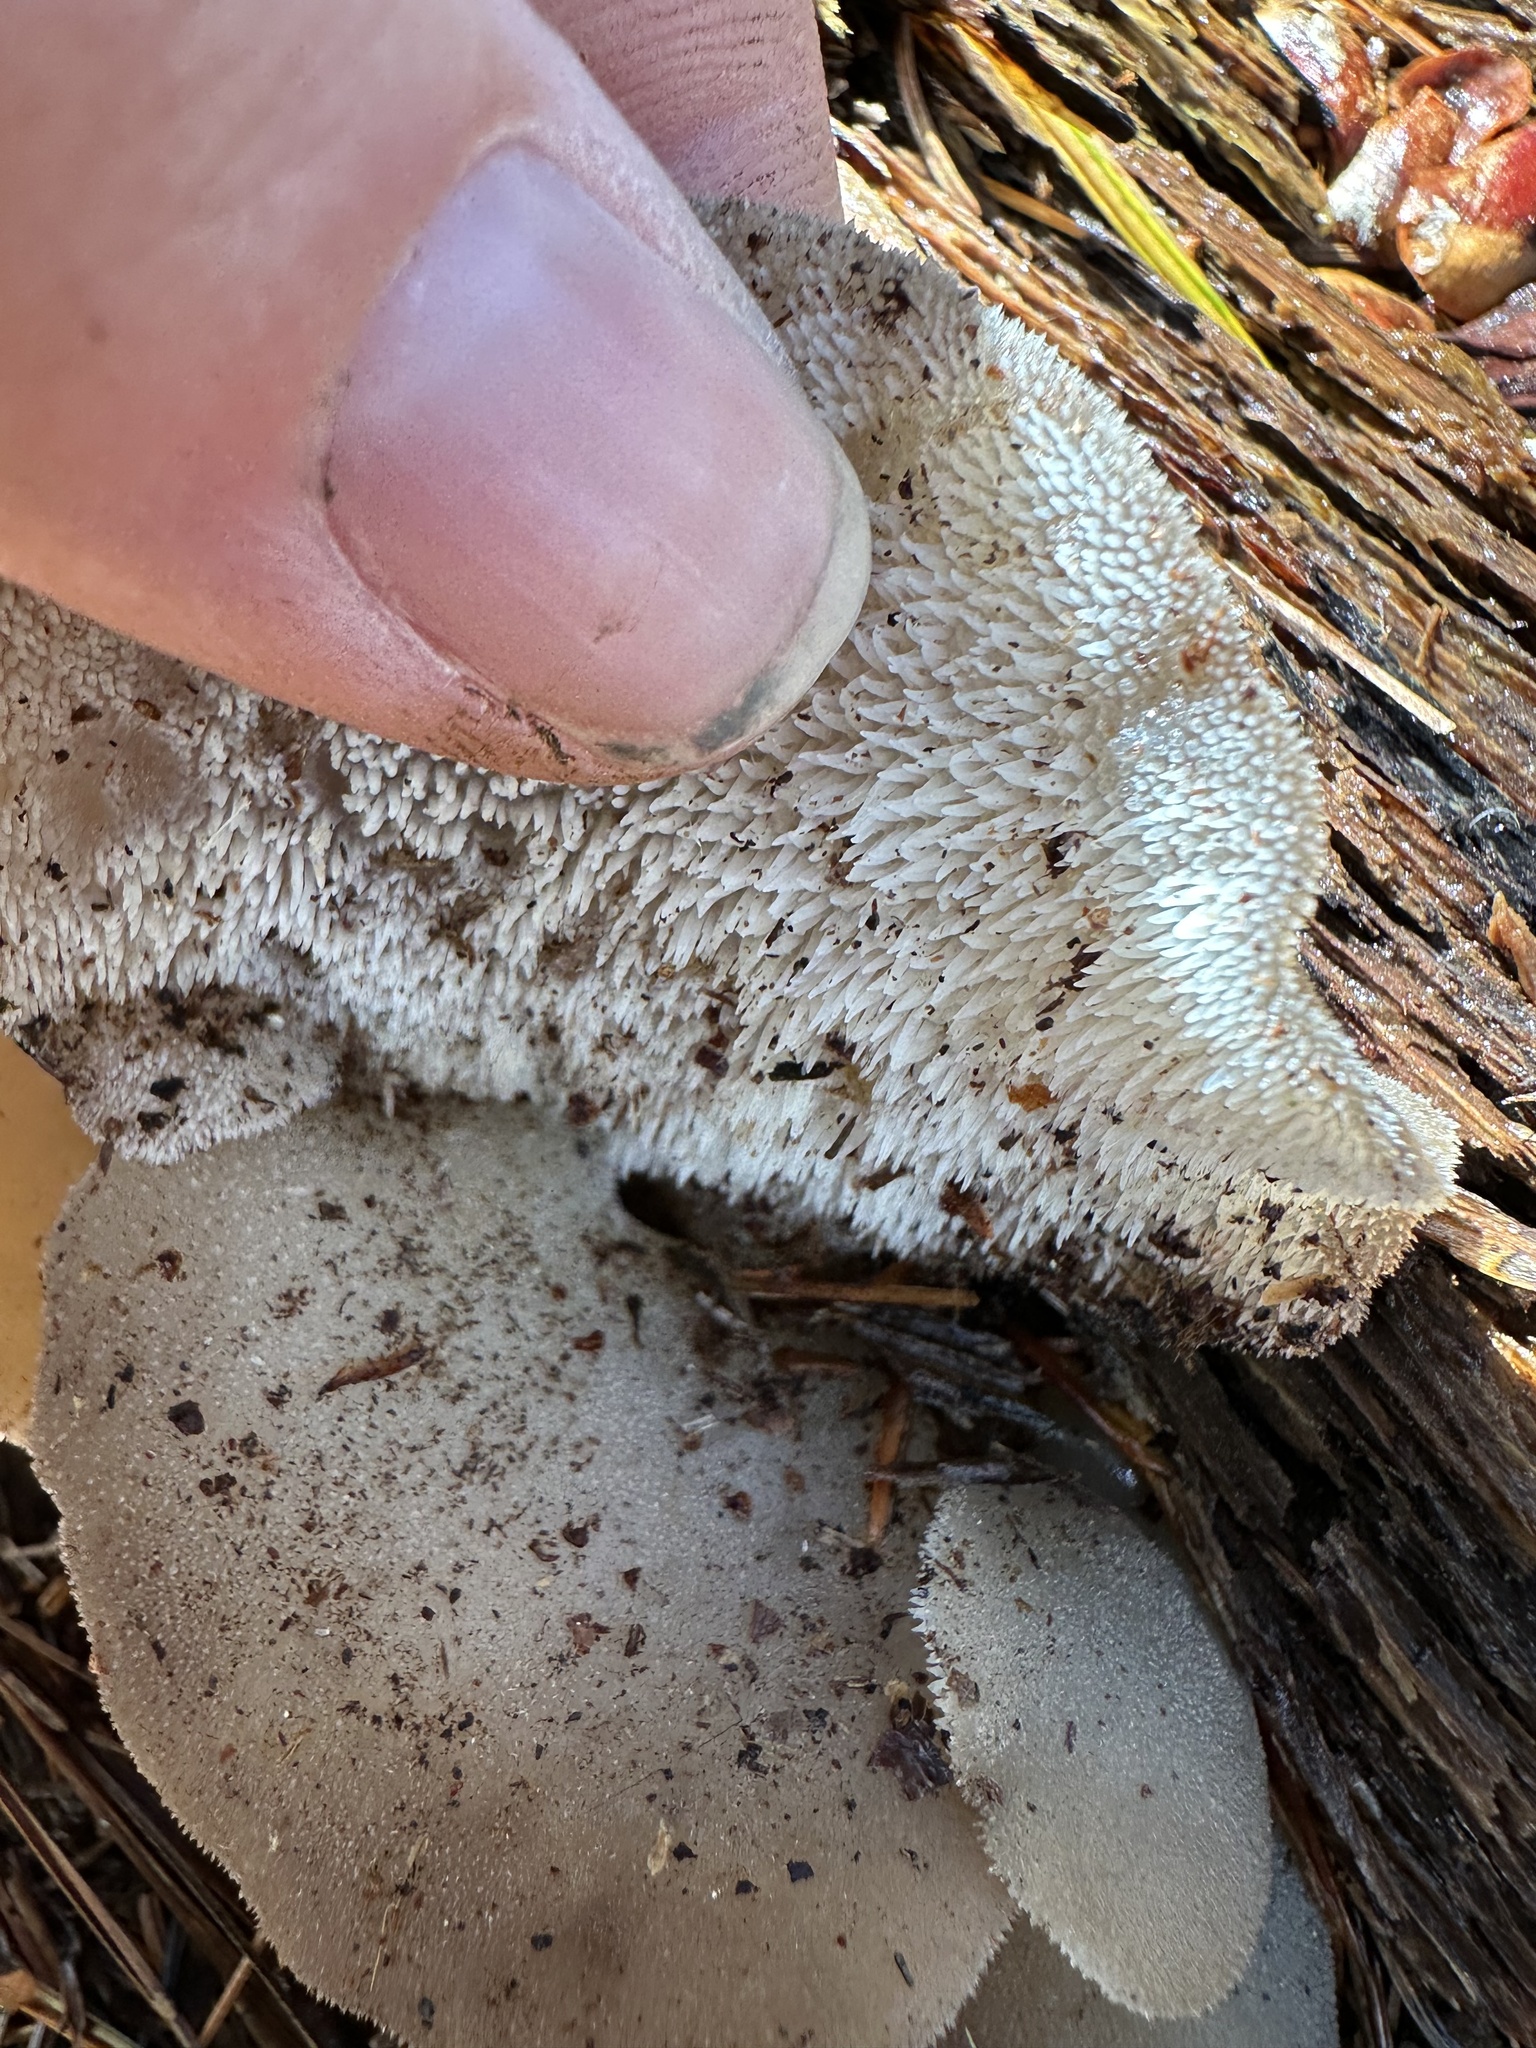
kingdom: Fungi
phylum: Basidiomycota
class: Agaricomycetes
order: Auriculariales
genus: Pseudohydnum
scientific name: Pseudohydnum gelatinosum
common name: Jelly tongue
